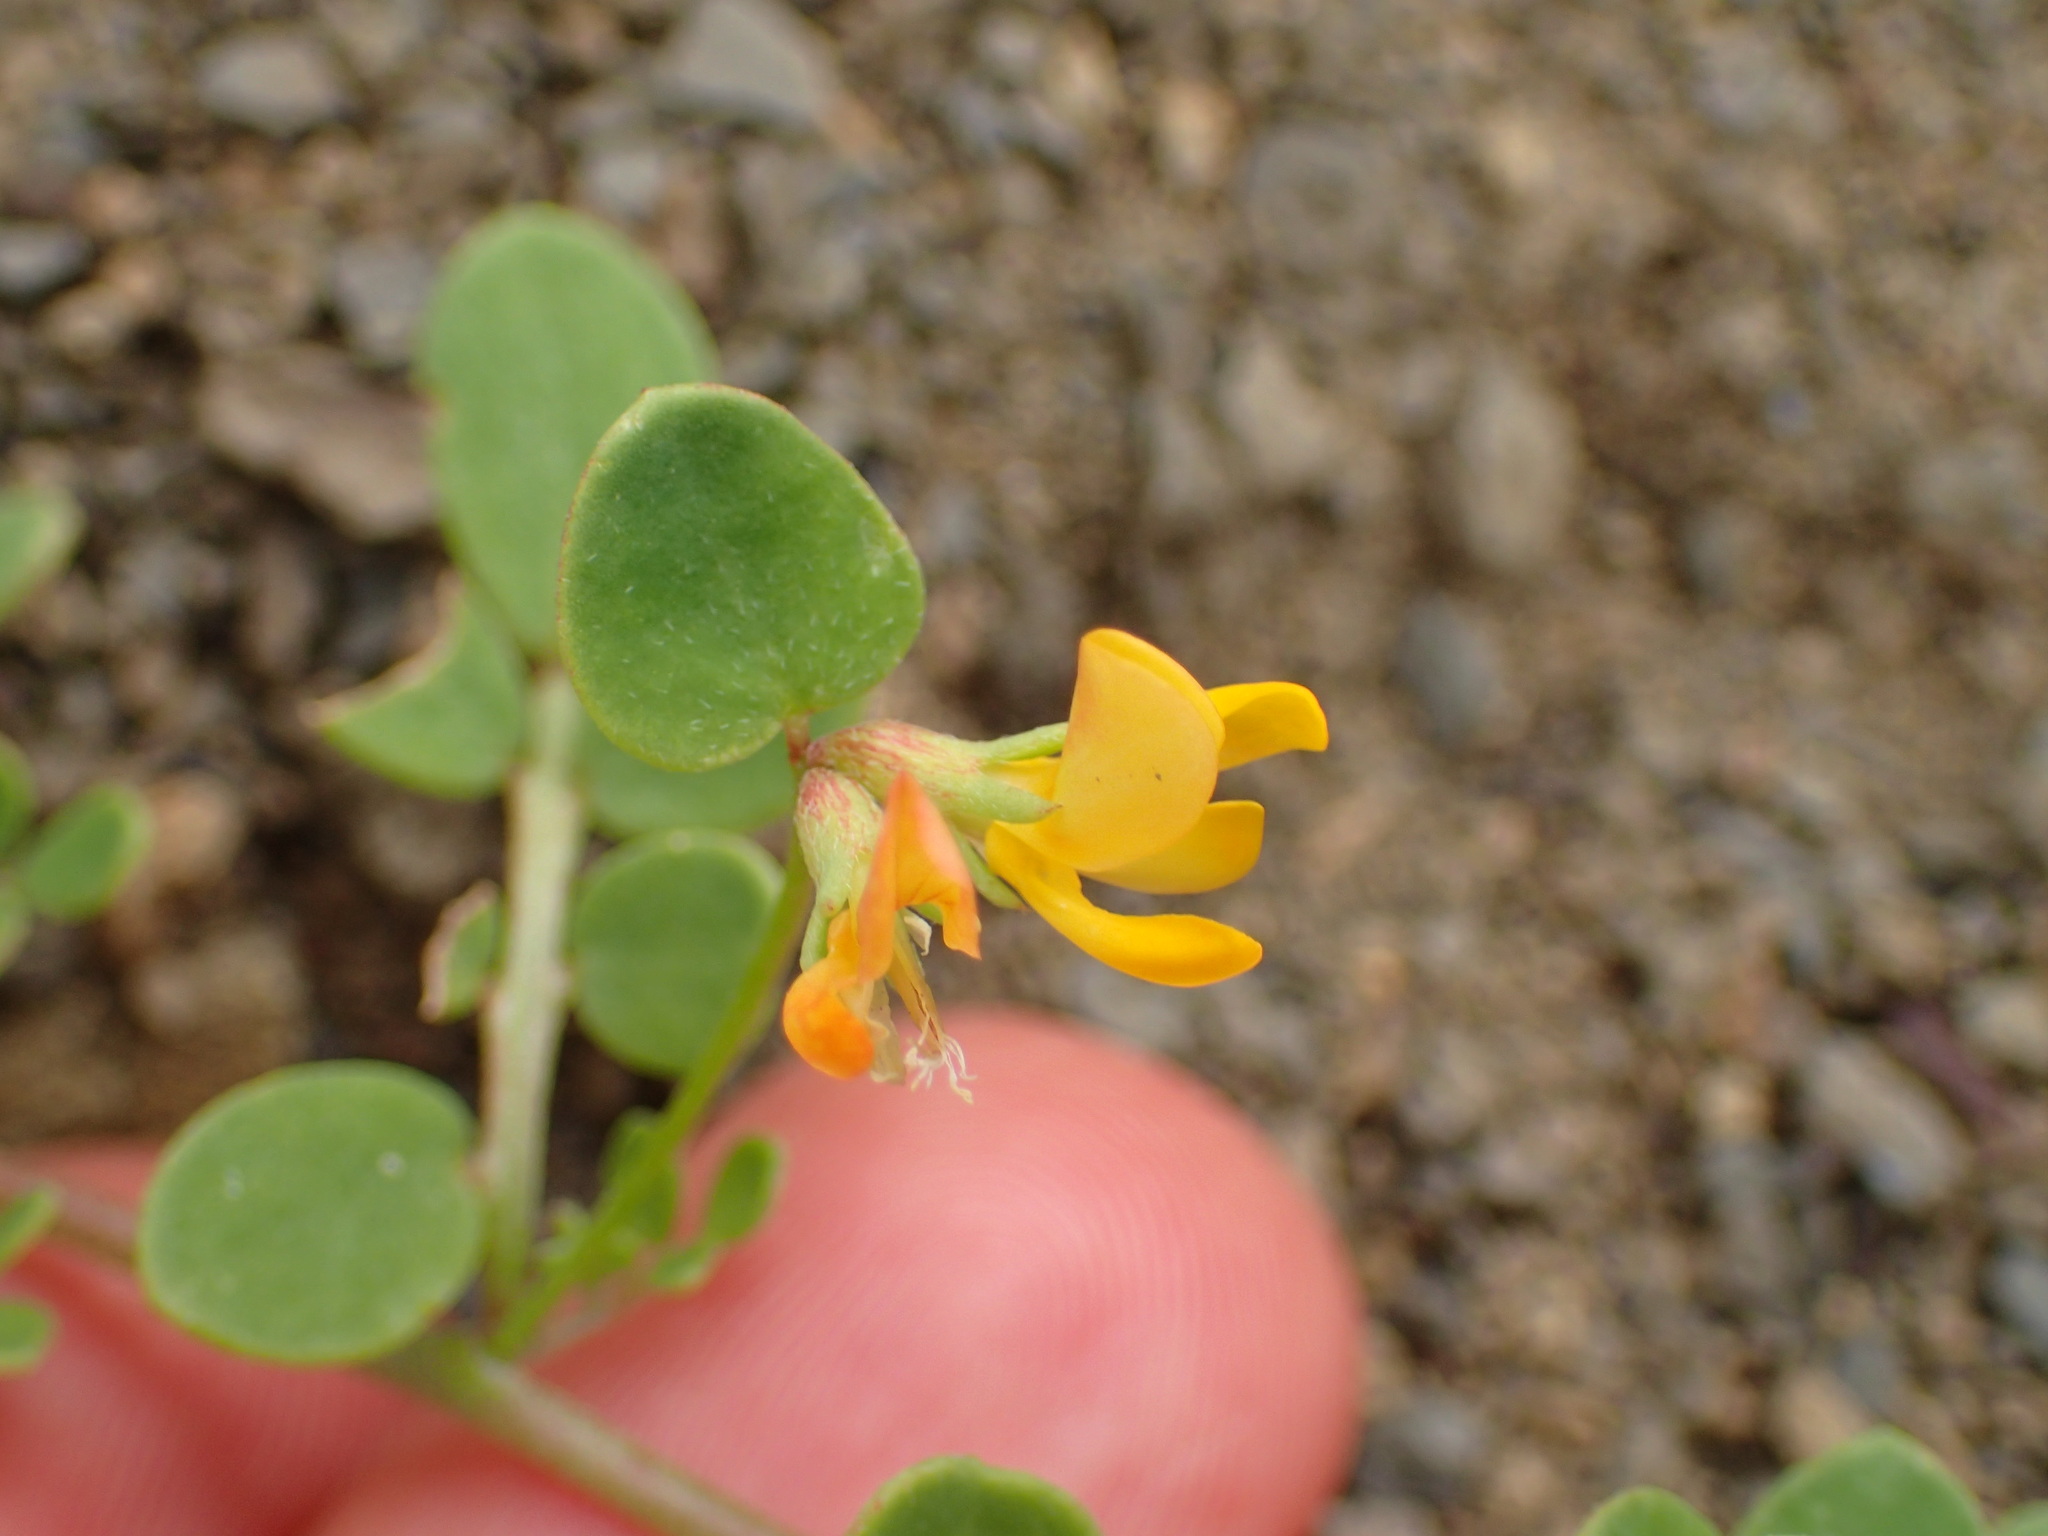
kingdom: Plantae
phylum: Tracheophyta
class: Magnoliopsida
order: Fabales
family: Fabaceae
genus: Acmispon
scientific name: Acmispon maritimus
